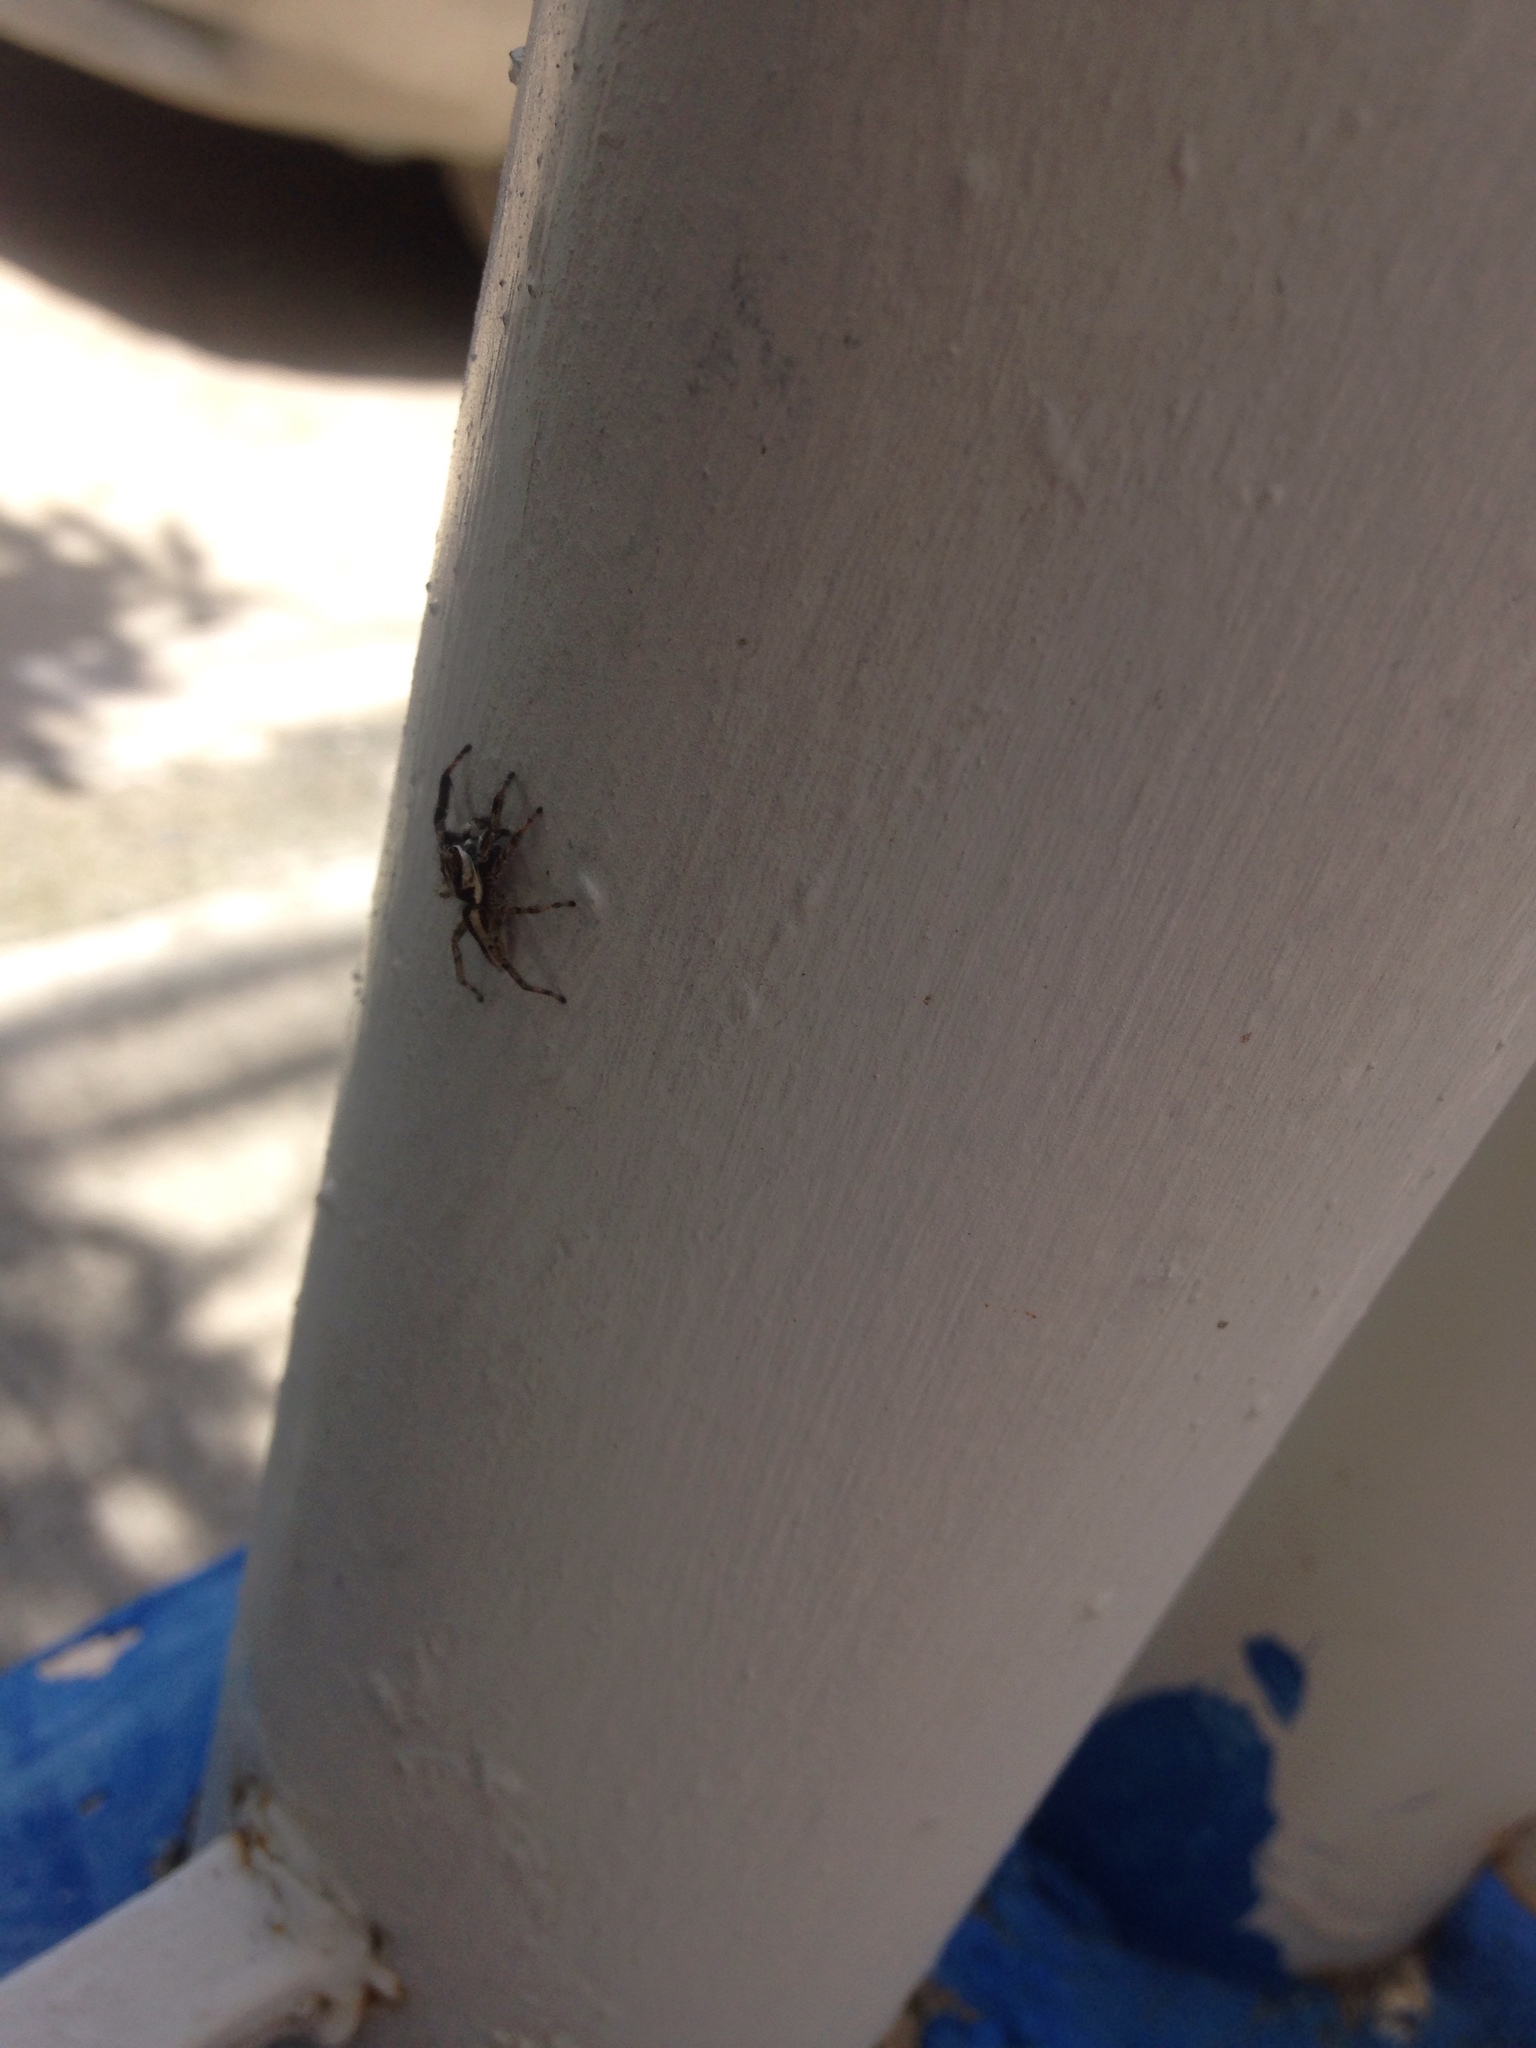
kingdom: Animalia
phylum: Arthropoda
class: Arachnida
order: Araneae
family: Salticidae
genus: Menemerus
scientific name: Menemerus bivittatus
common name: Gray wall jumper
